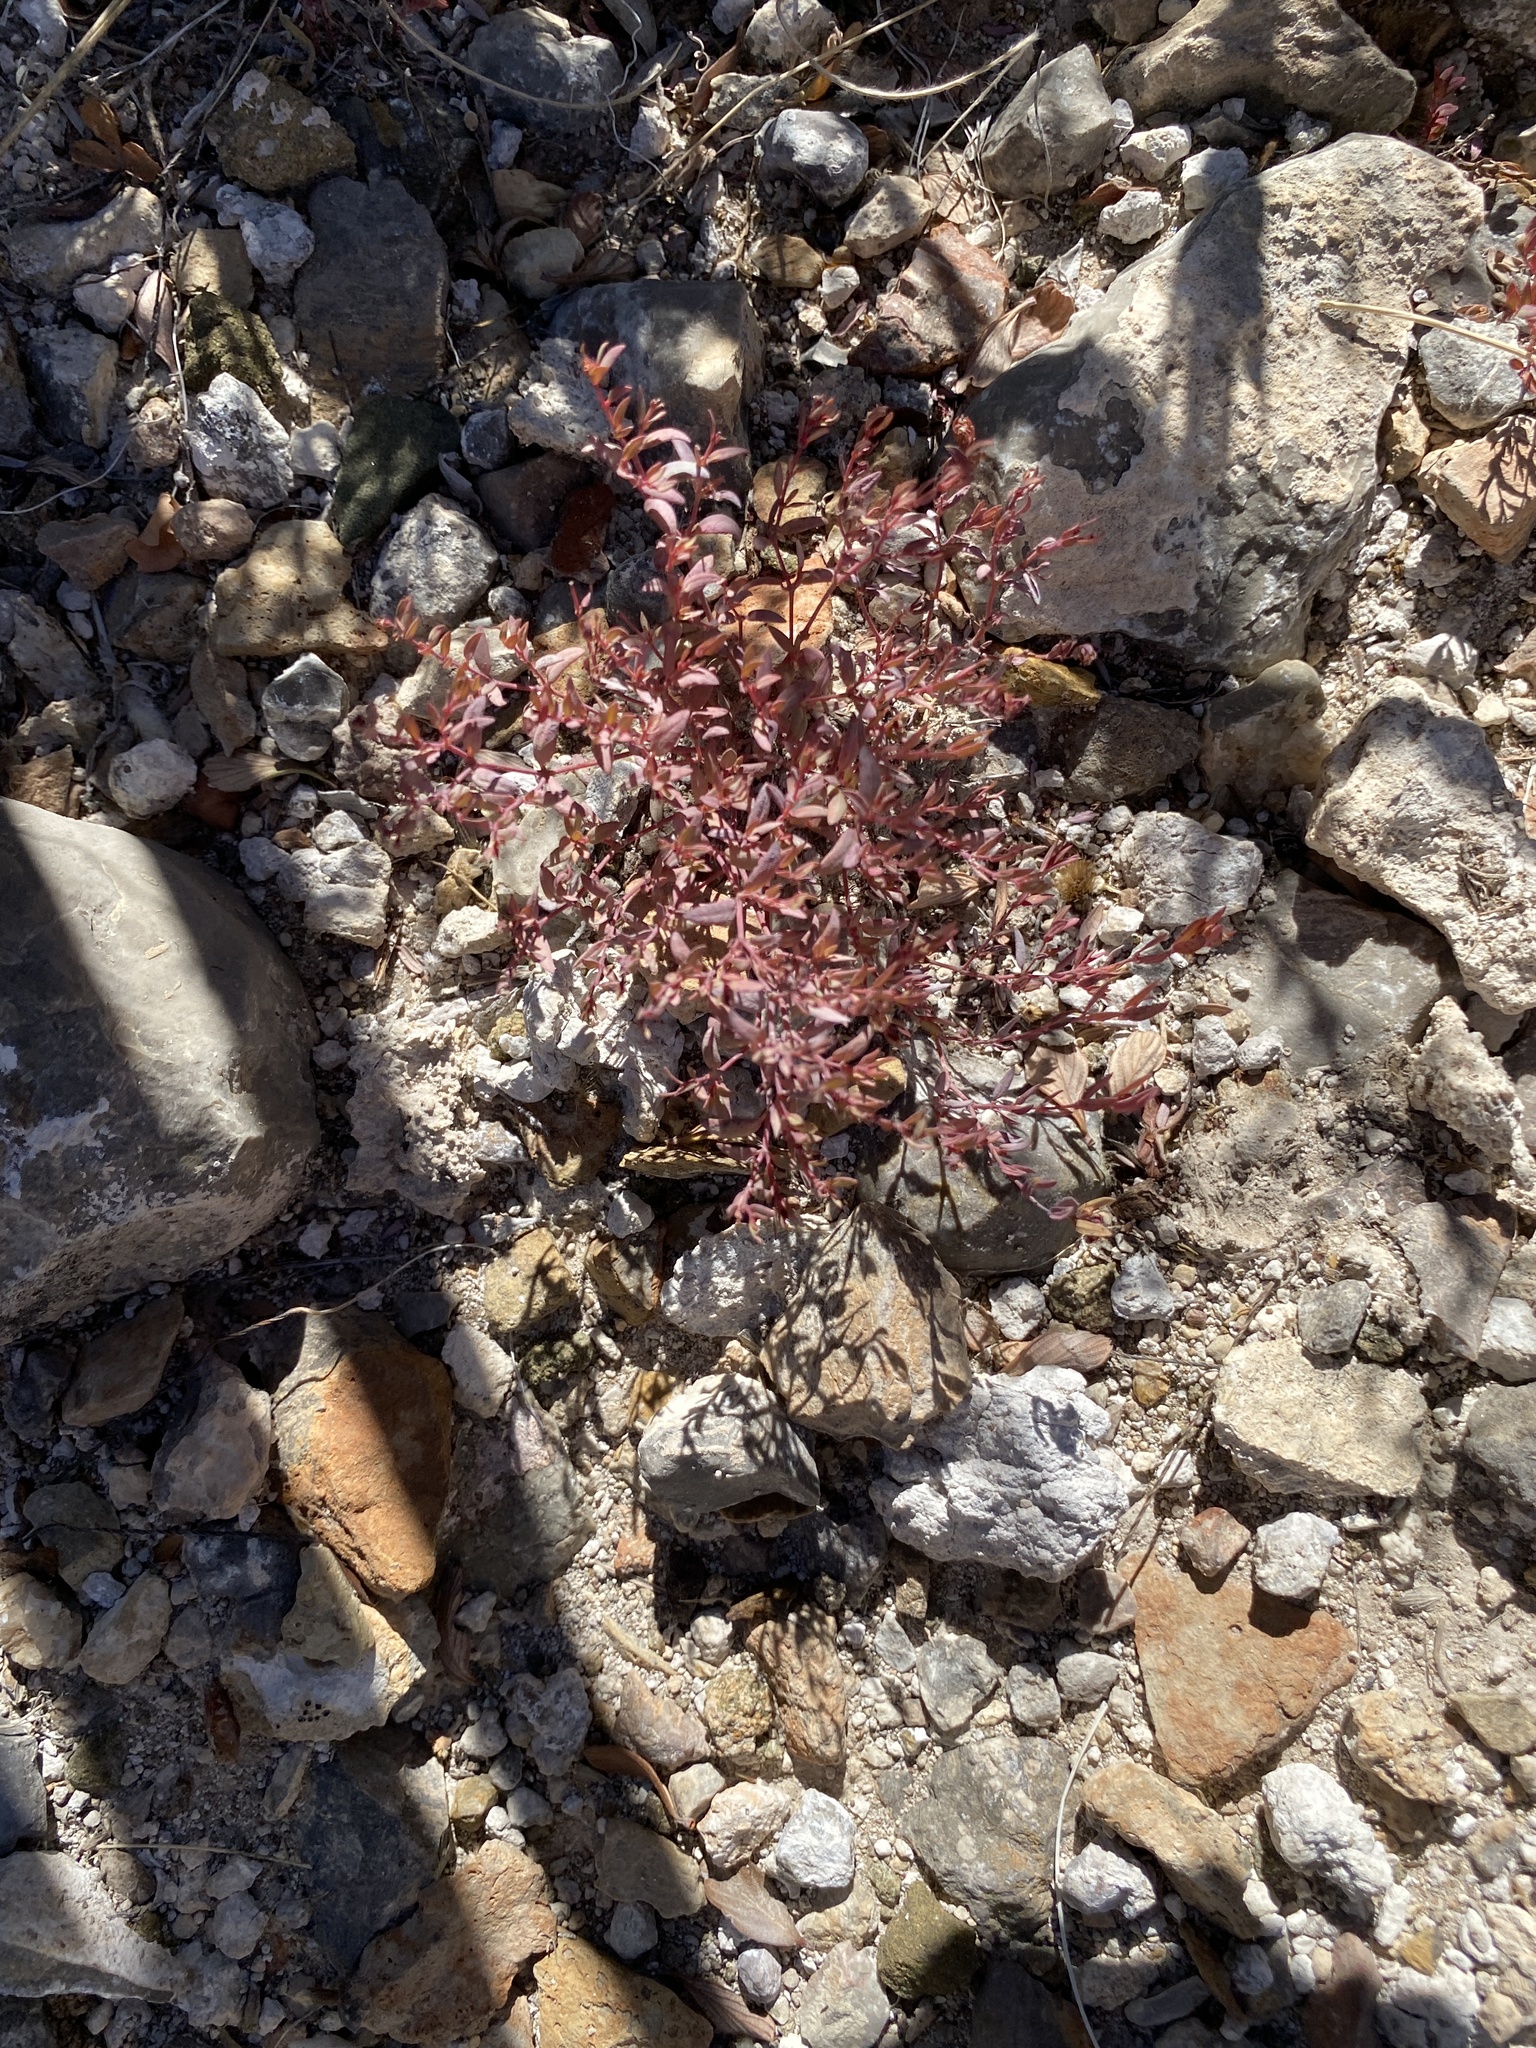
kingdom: Plantae
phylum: Tracheophyta
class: Magnoliopsida
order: Malpighiales
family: Euphorbiaceae
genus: Euphorbia
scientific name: Euphorbia chaetocalyx
